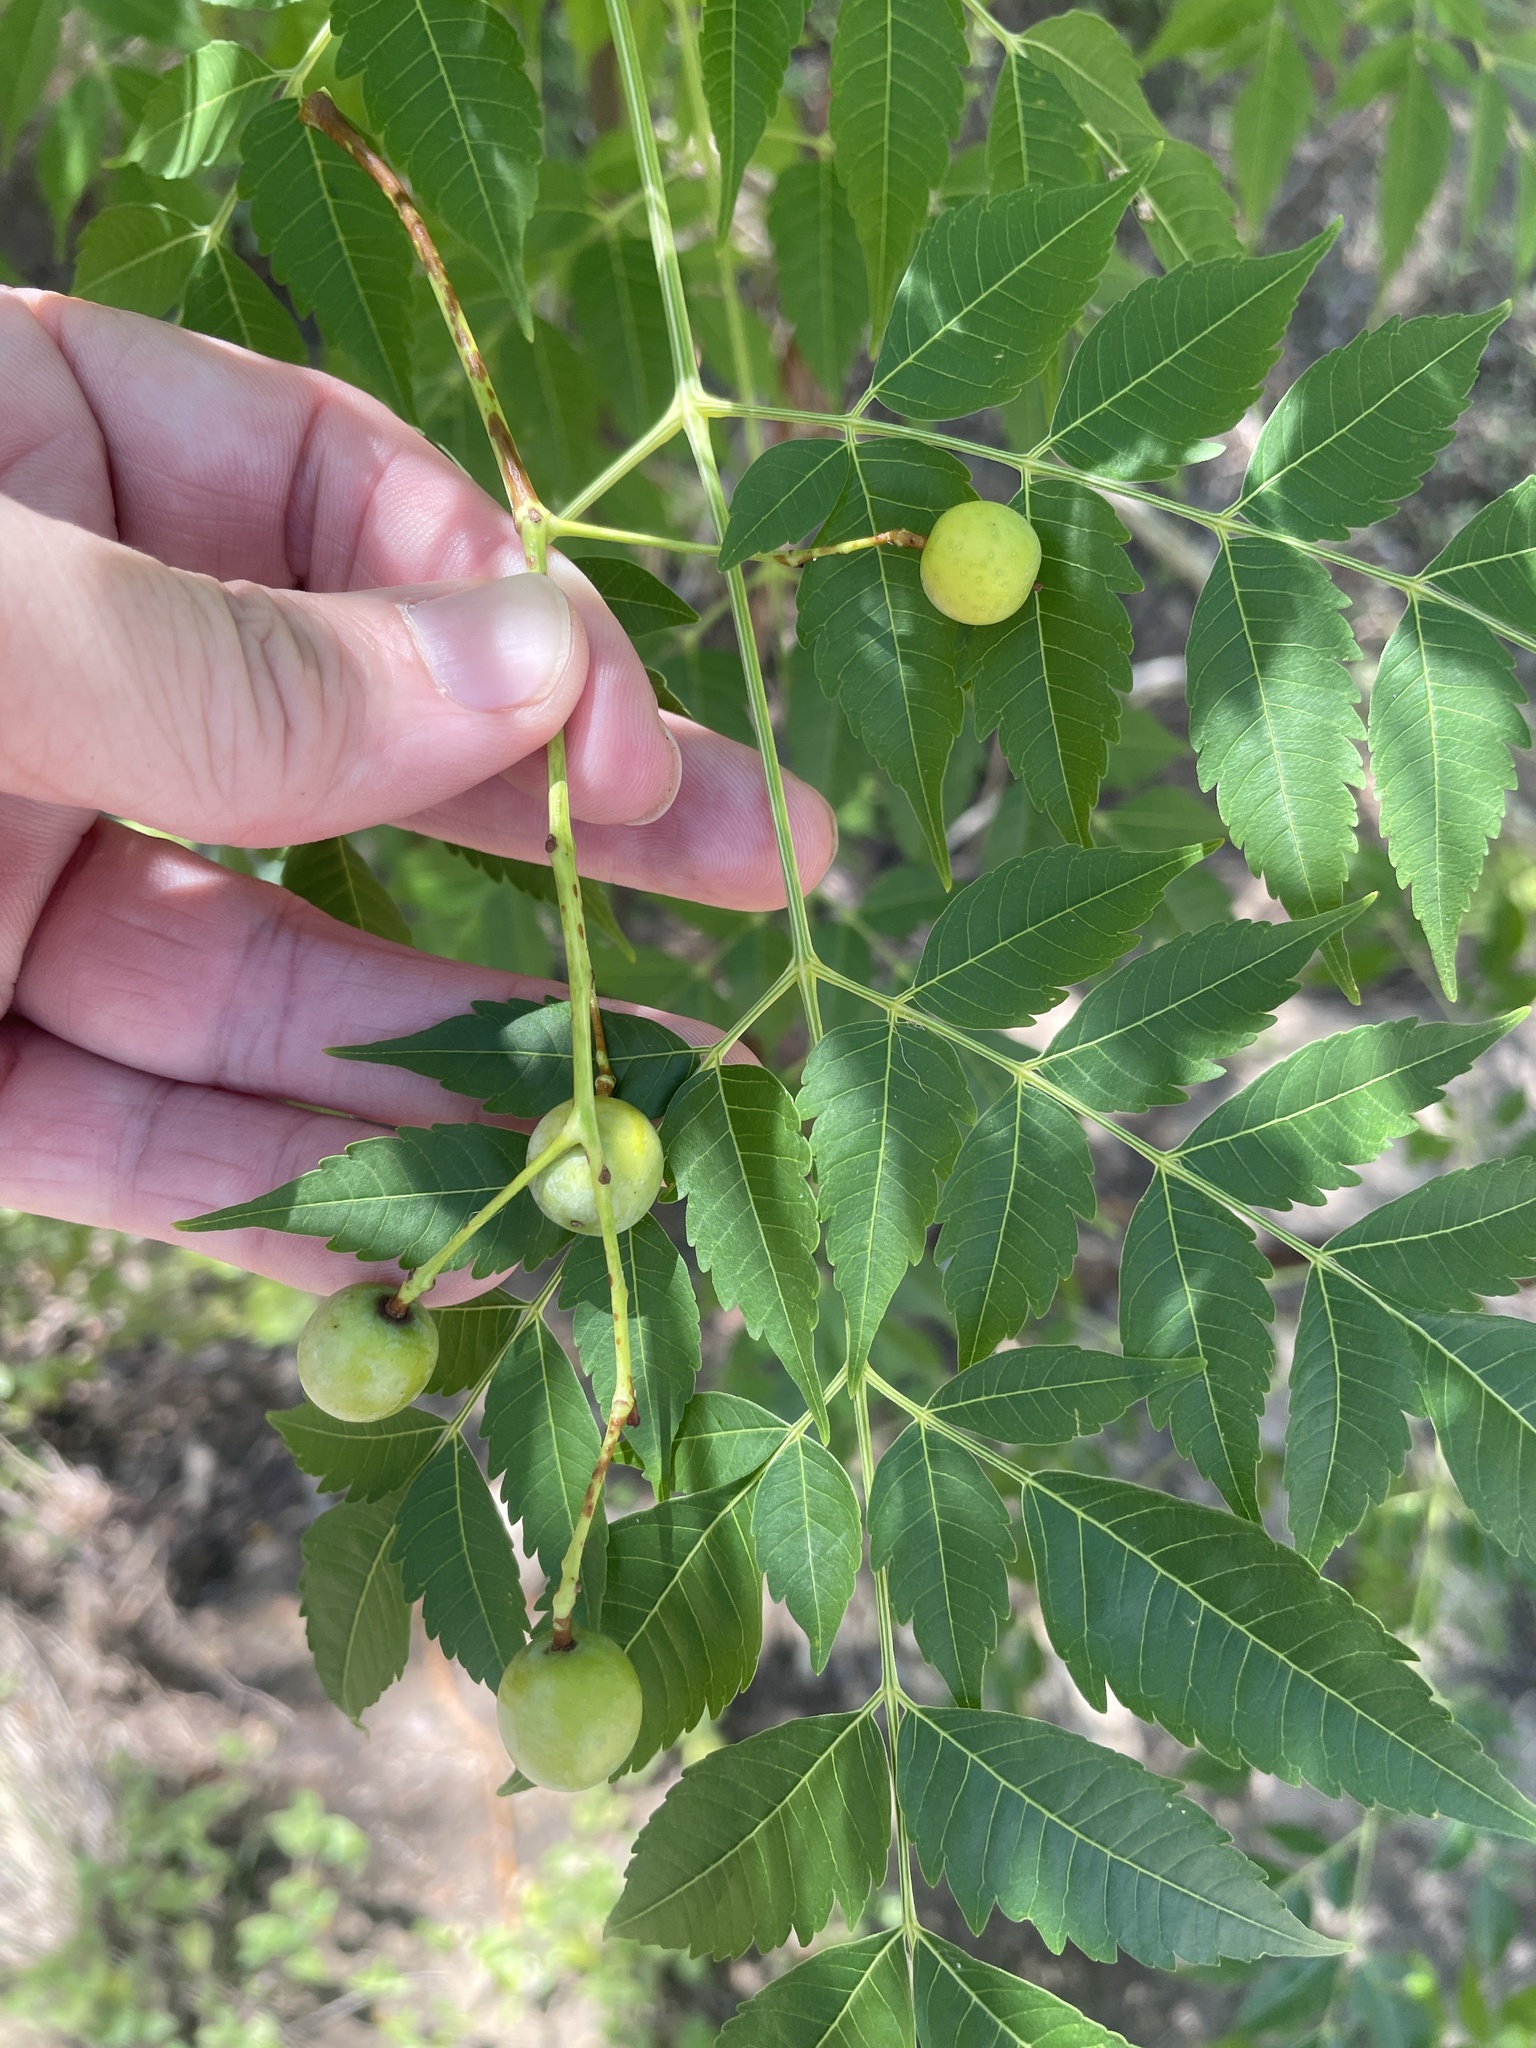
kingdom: Plantae
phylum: Tracheophyta
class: Magnoliopsida
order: Sapindales
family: Meliaceae
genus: Melia
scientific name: Melia azedarach
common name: Chinaberrytree
